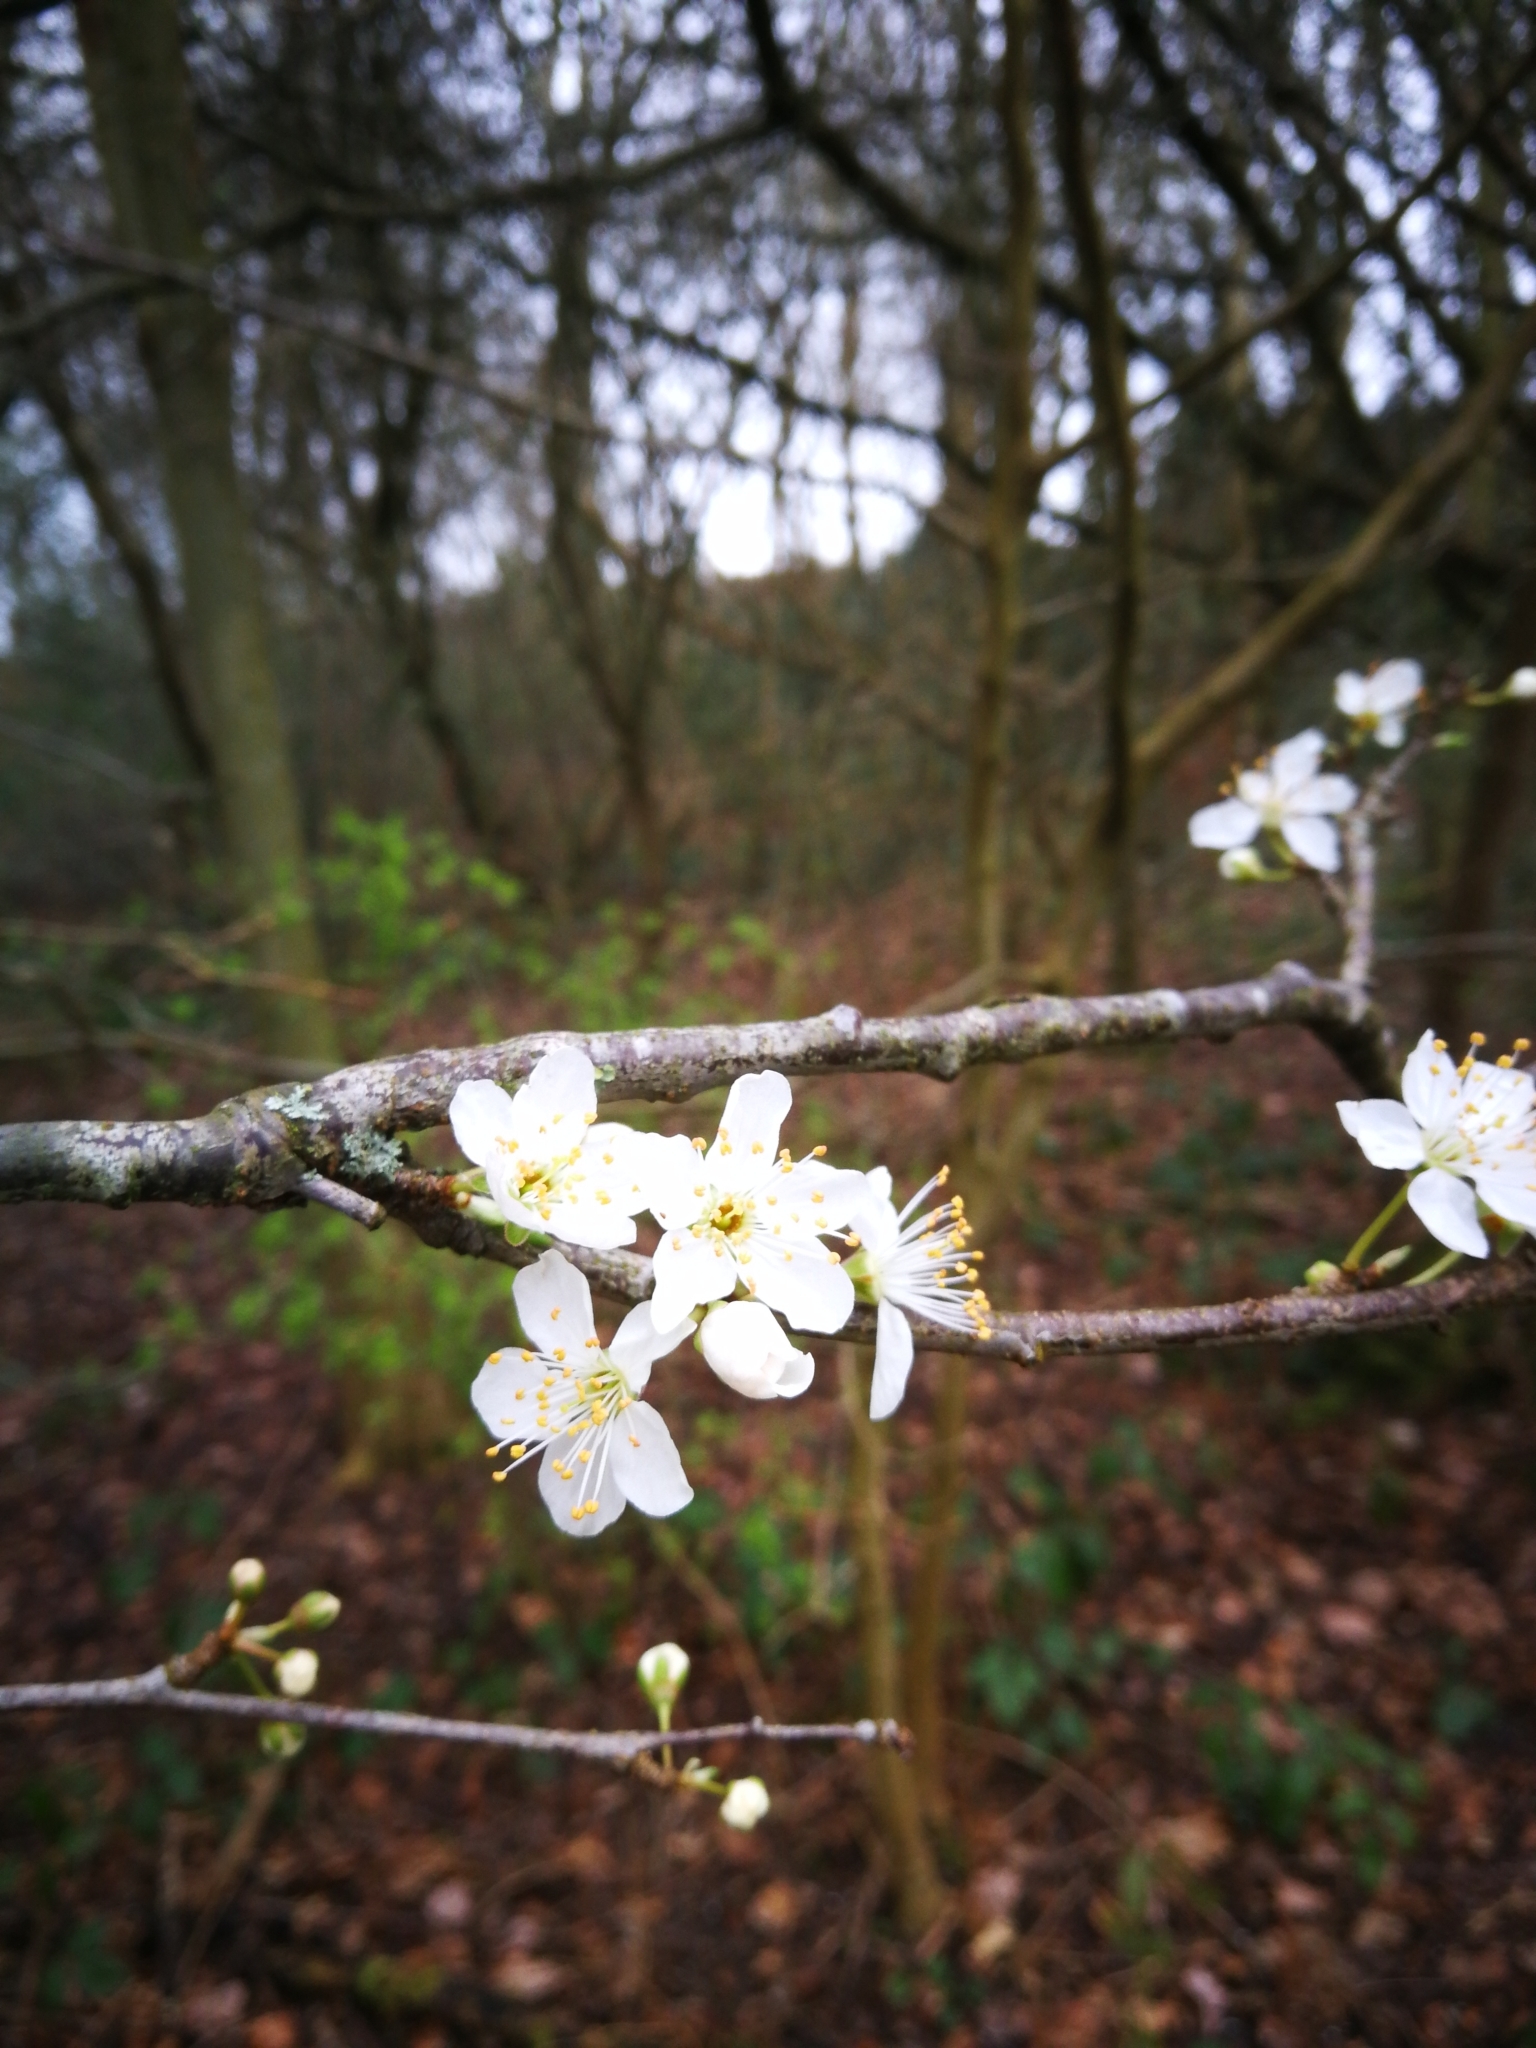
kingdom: Plantae
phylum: Tracheophyta
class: Magnoliopsida
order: Rosales
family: Rosaceae
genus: Prunus
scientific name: Prunus cerasifera
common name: Cherry plum
